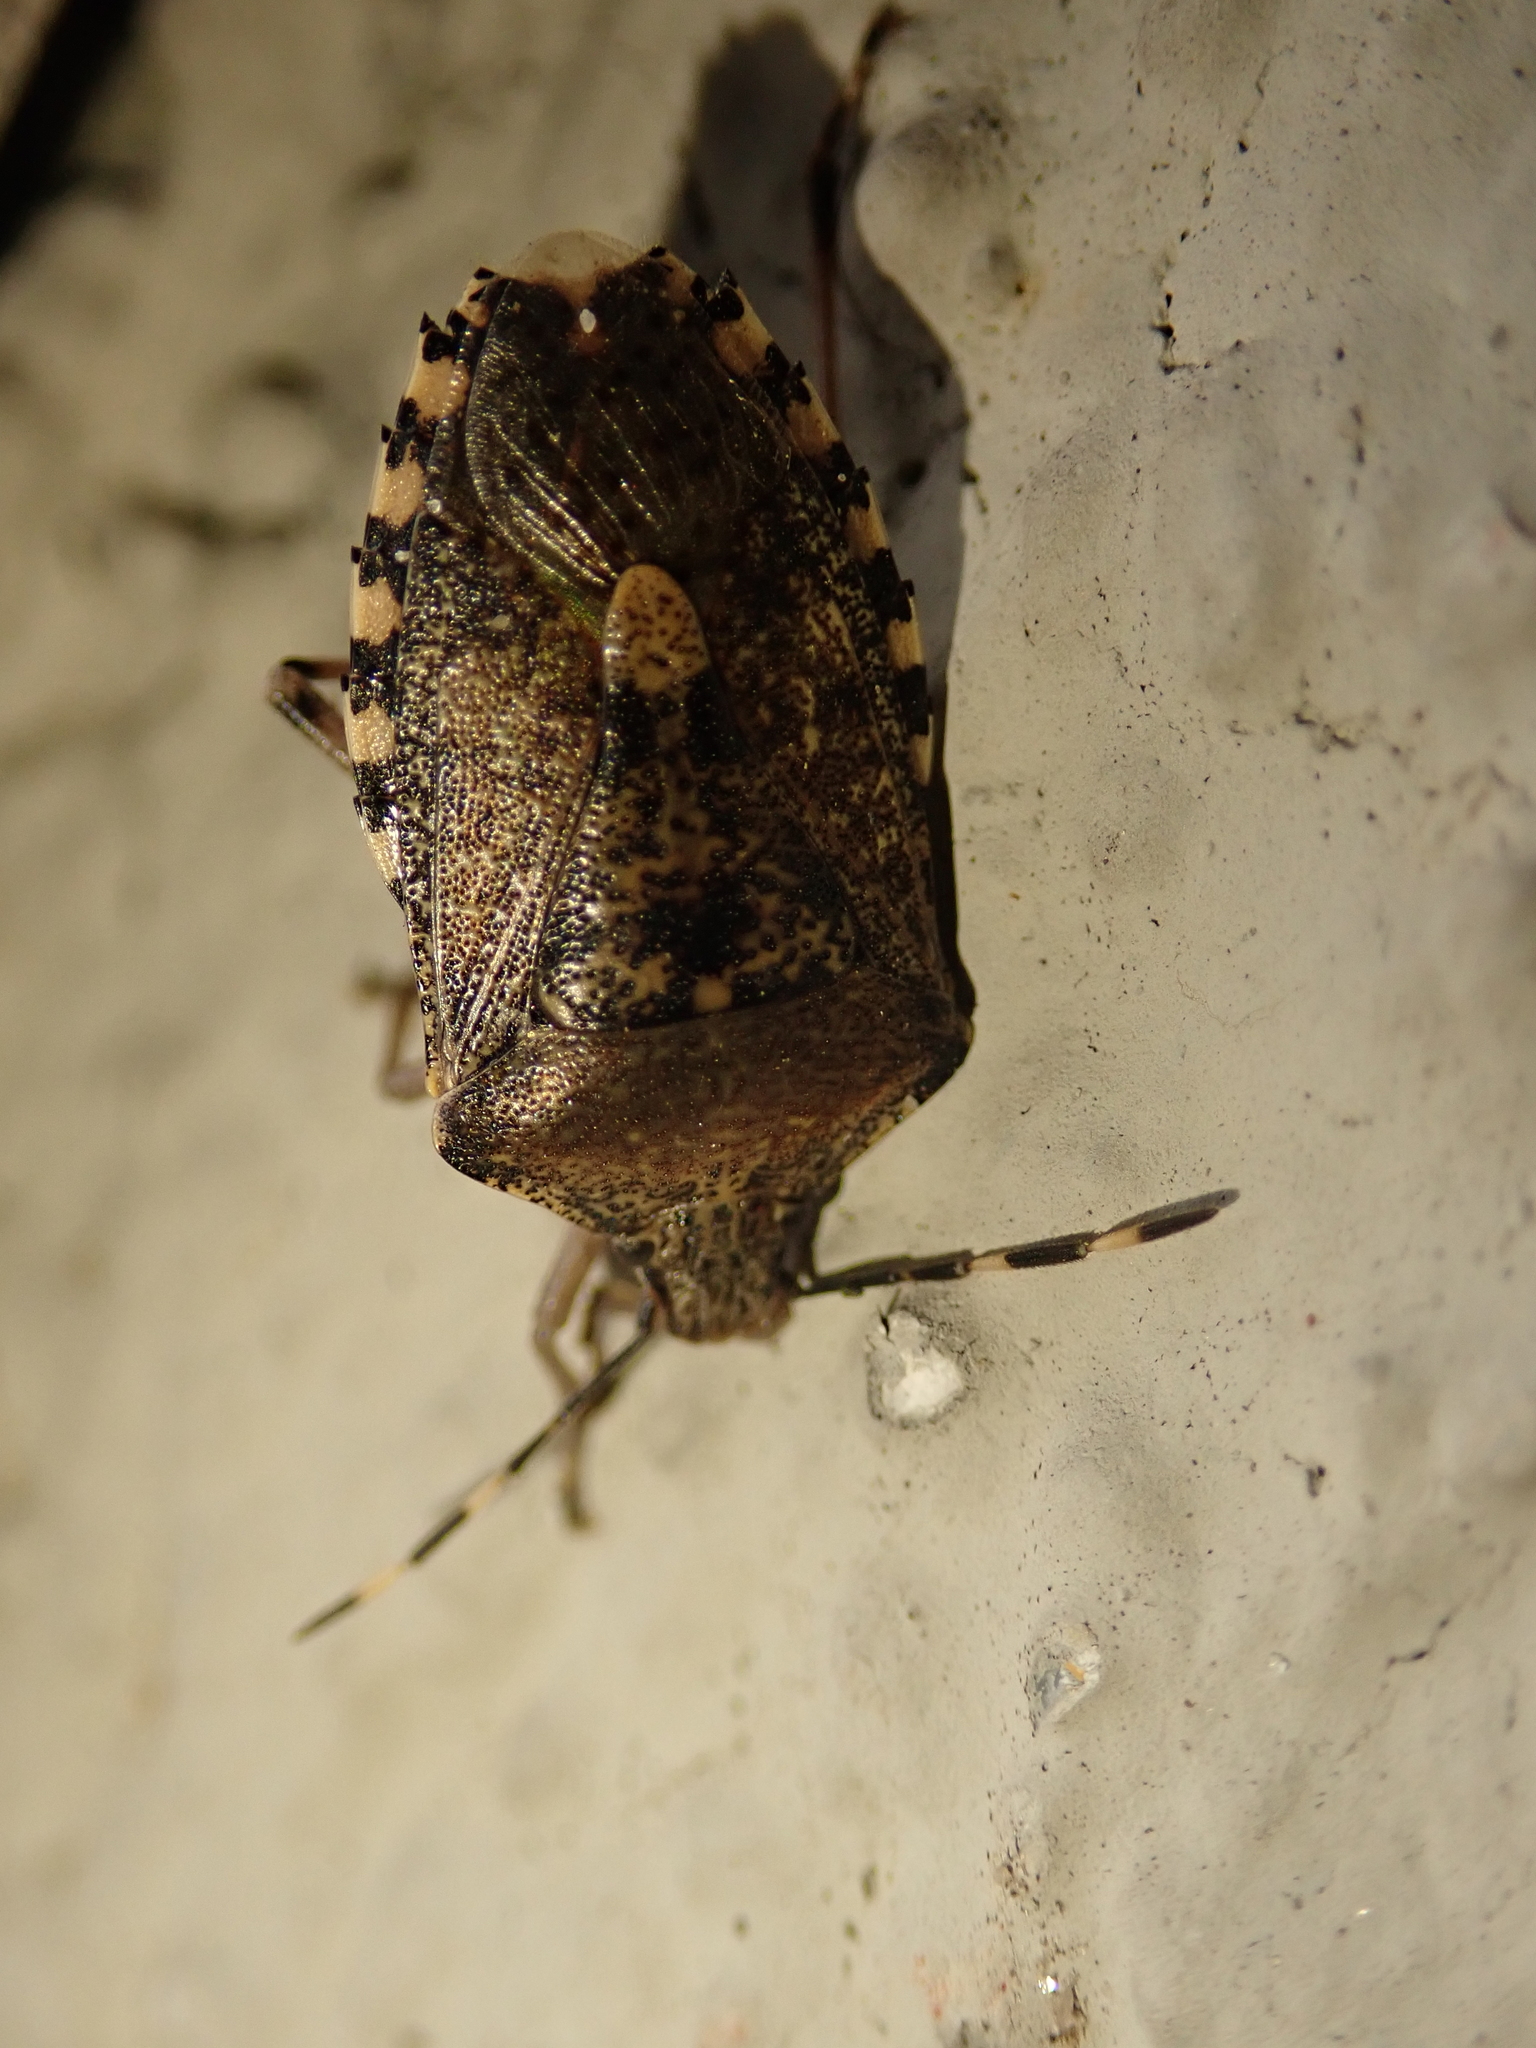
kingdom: Animalia
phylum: Arthropoda
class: Insecta
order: Hemiptera
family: Pentatomidae
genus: Rhaphigaster
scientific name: Rhaphigaster nebulosa
